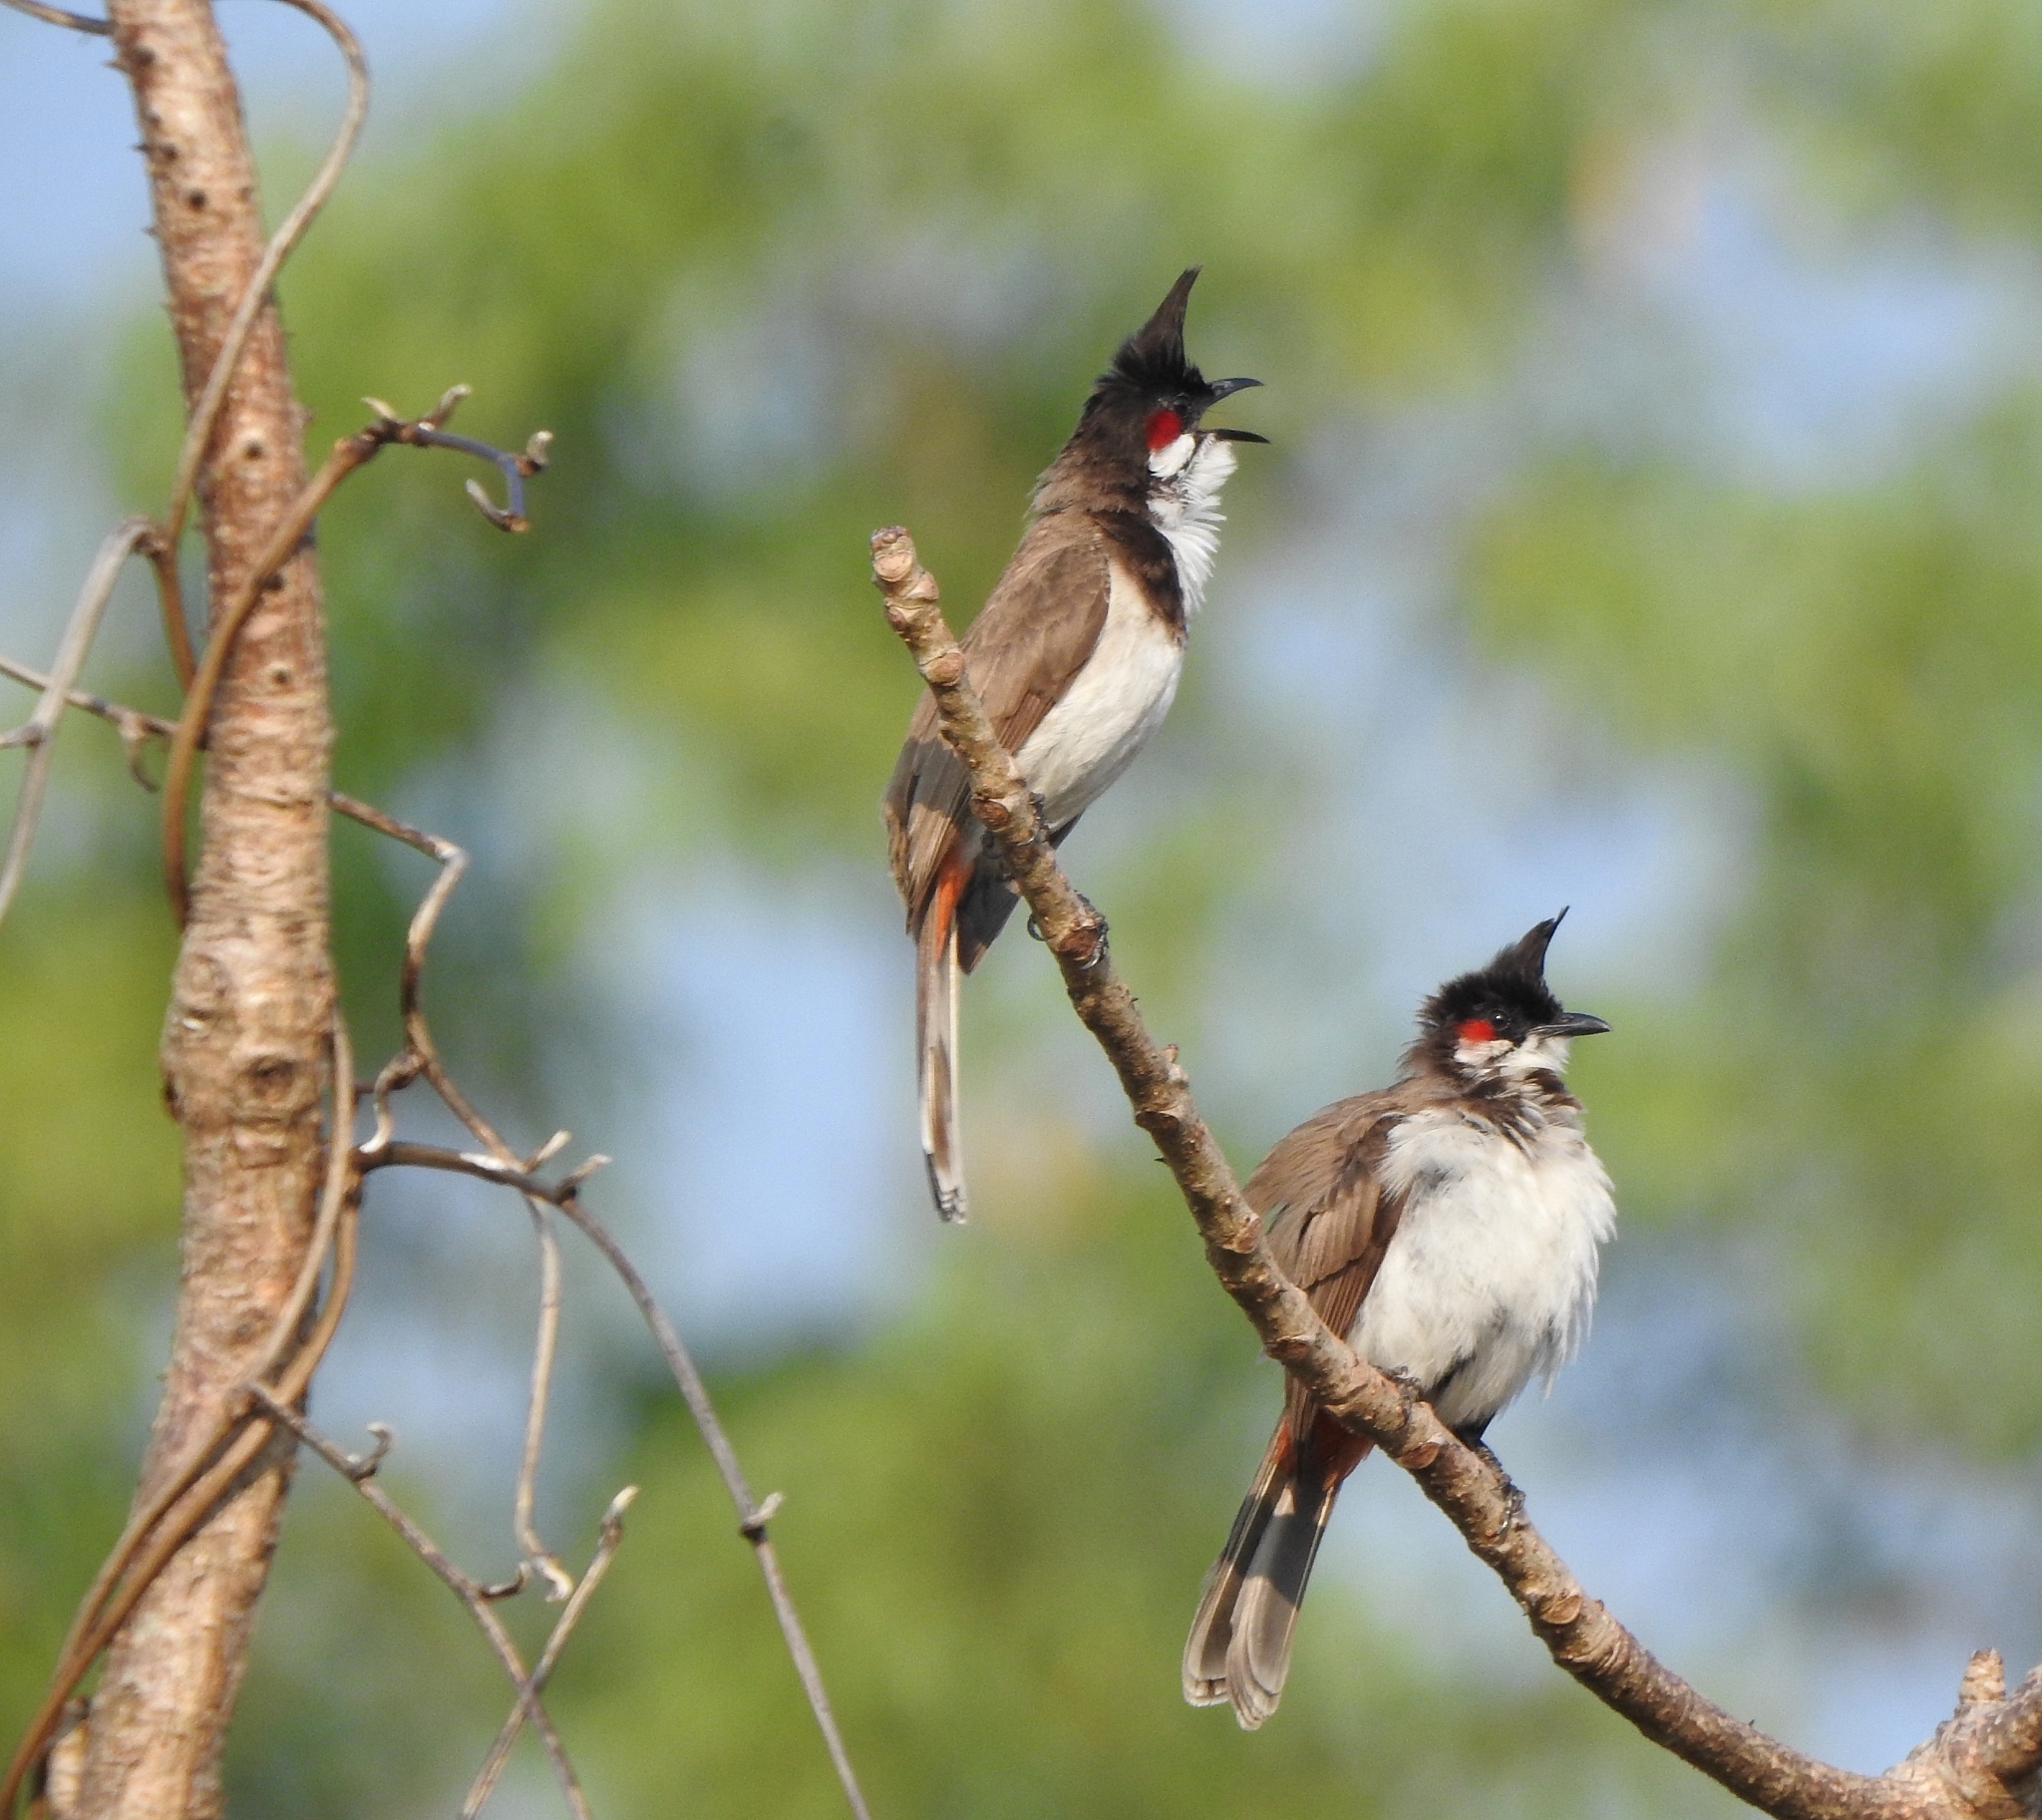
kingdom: Animalia
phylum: Chordata
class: Aves
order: Passeriformes
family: Pycnonotidae
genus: Pycnonotus
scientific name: Pycnonotus jocosus
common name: Red-whiskered bulbul
